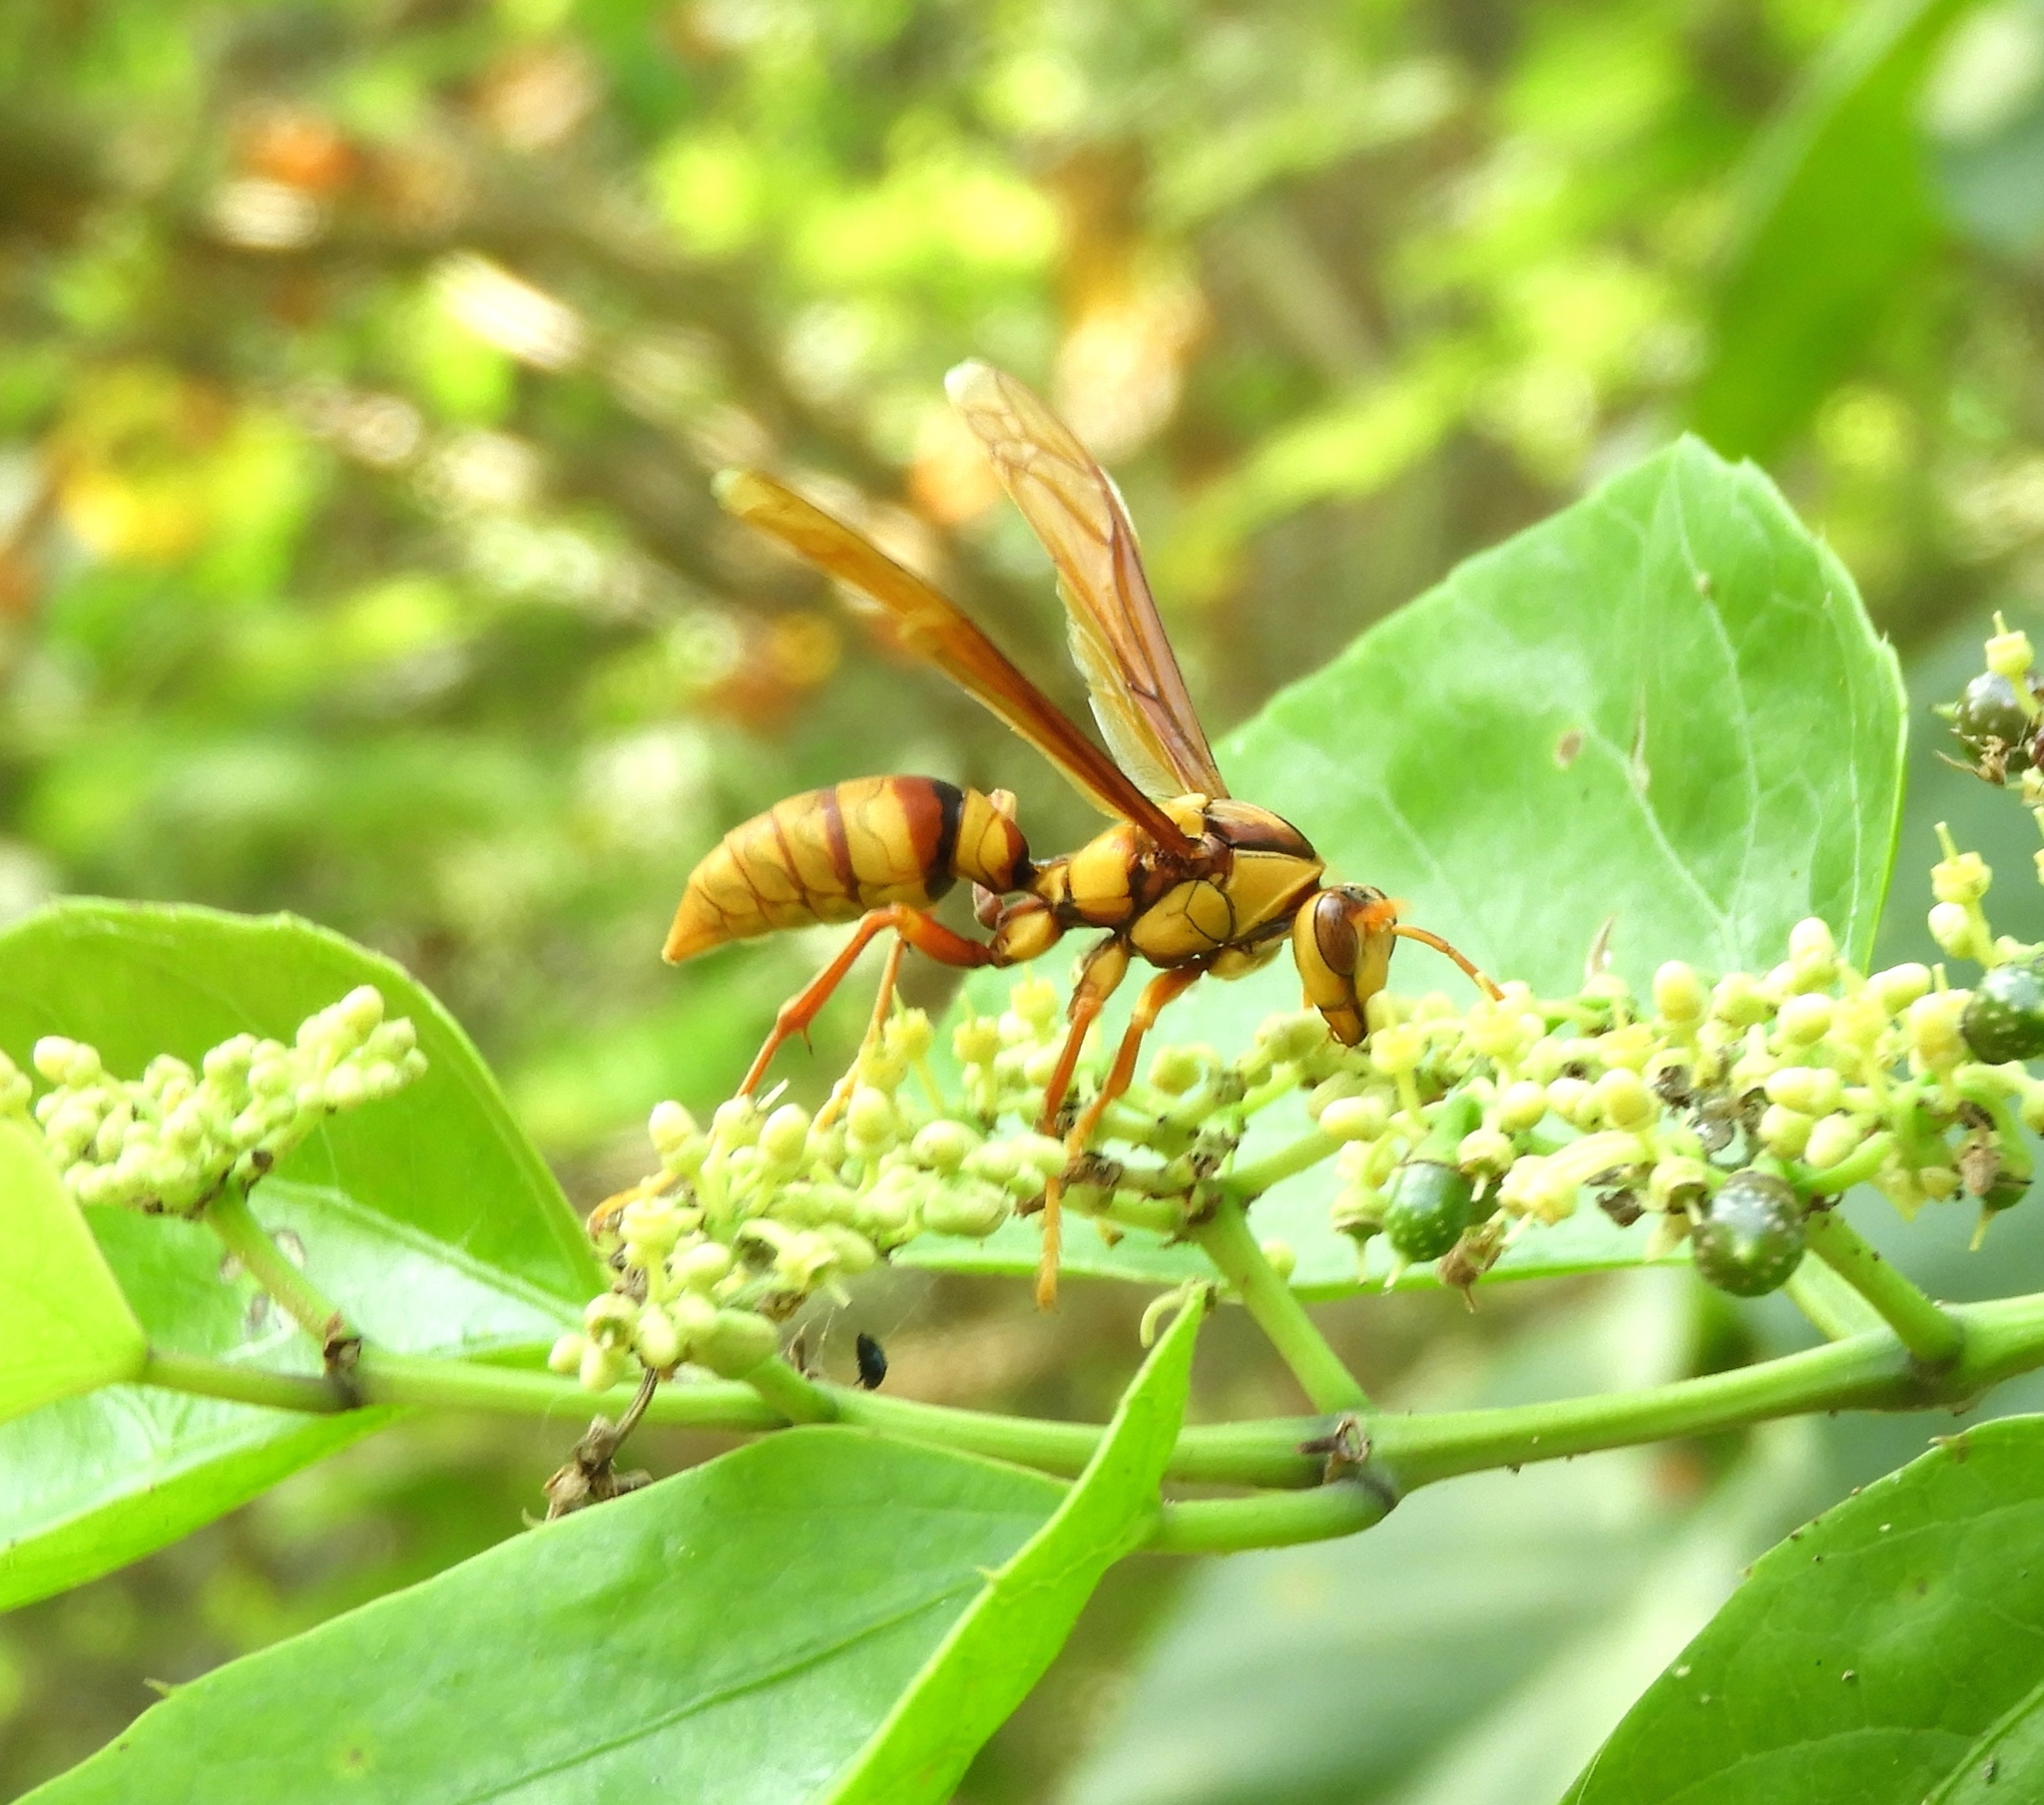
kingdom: Animalia
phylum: Arthropoda
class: Insecta
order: Hymenoptera
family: Eumenidae
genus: Polistes
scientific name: Polistes carnifex
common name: Paper wasp
